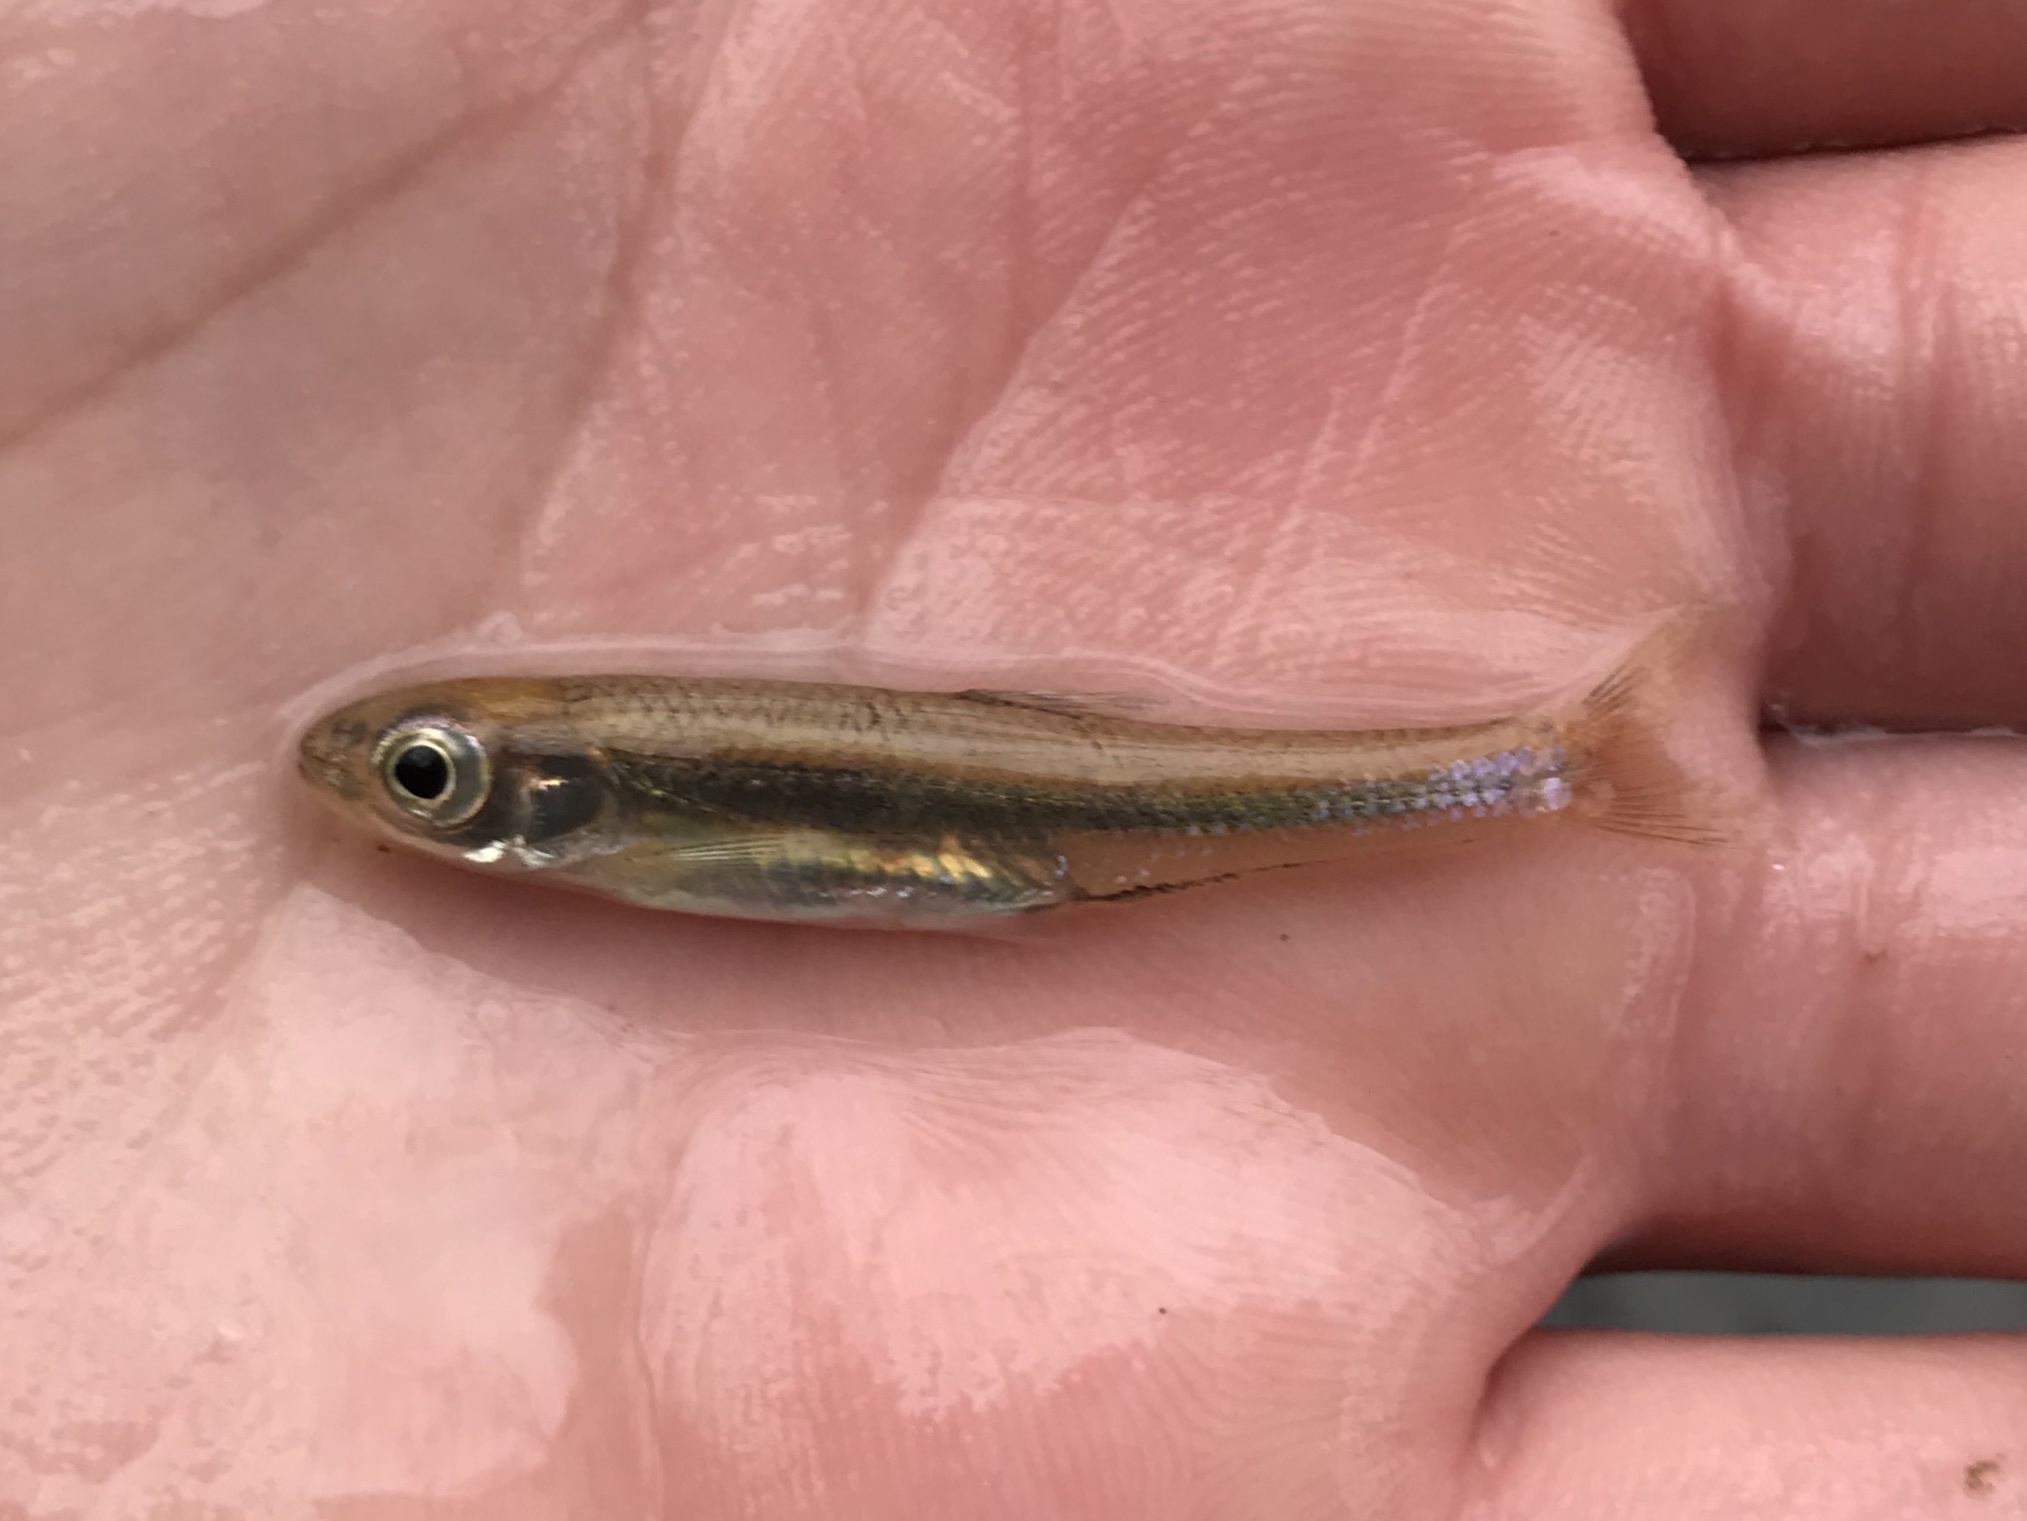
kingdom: Animalia
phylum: Chordata
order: Cypriniformes
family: Cyprinidae
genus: Notropis
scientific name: Notropis amabilis
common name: Texas shiner
